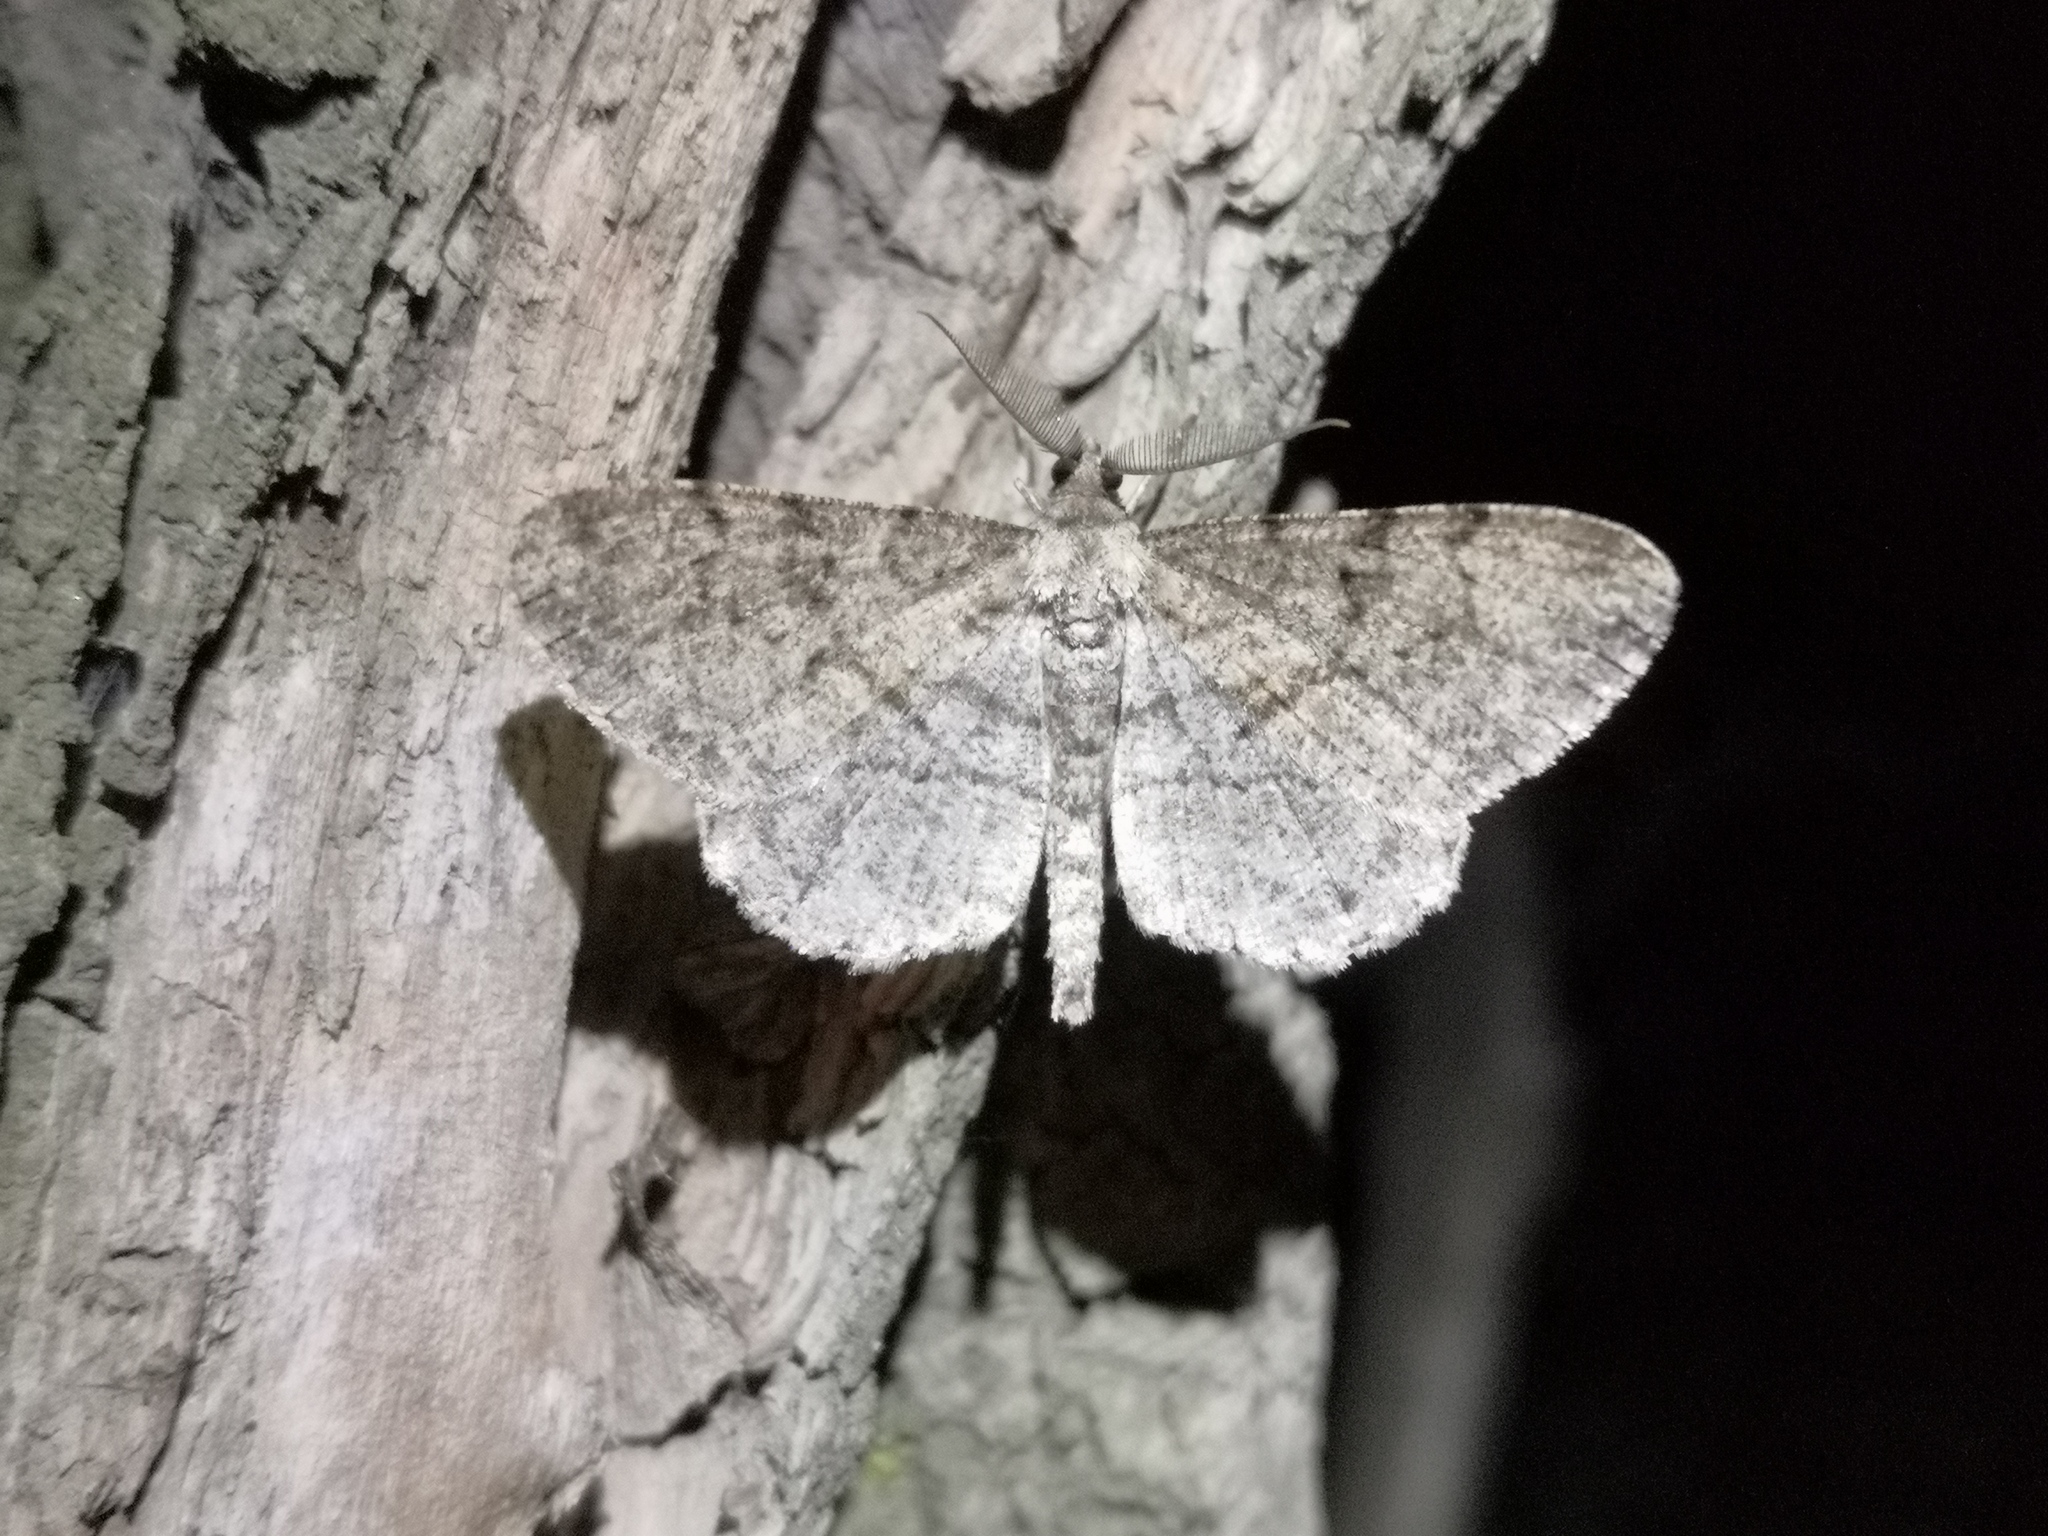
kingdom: Animalia
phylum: Arthropoda
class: Insecta
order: Lepidoptera
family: Geometridae
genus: Peribatodes
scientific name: Peribatodes rhomboidaria
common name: Willow beauty
